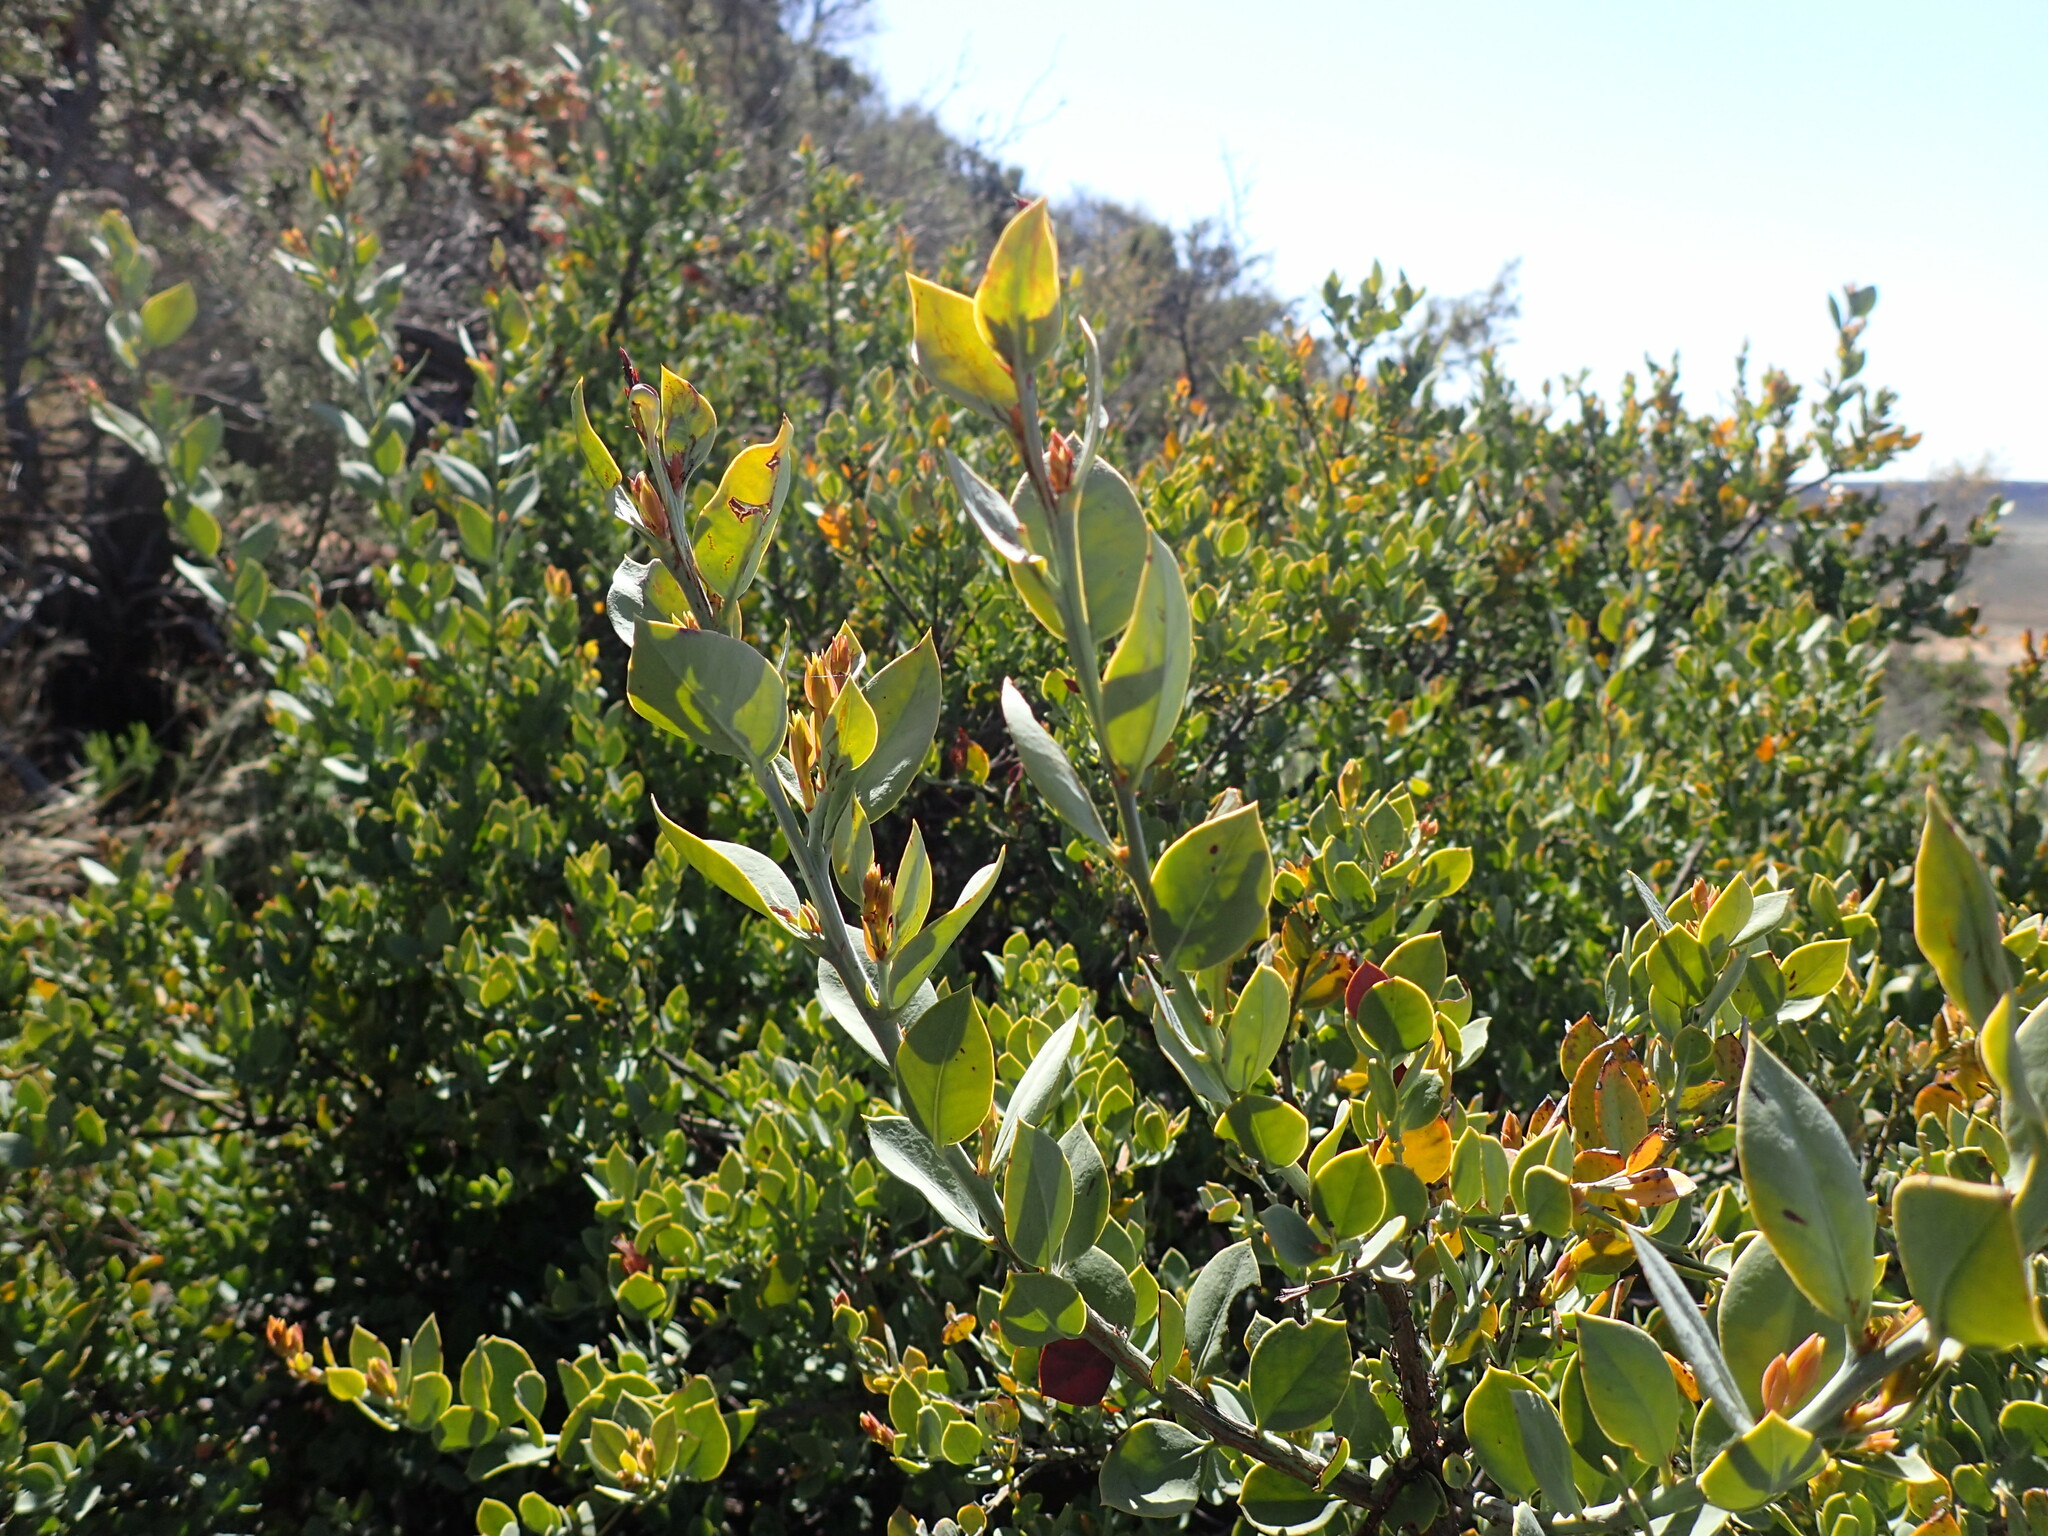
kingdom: Plantae
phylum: Tracheophyta
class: Magnoliopsida
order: Santalales
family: Santalaceae
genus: Osyris
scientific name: Osyris lanceolata
